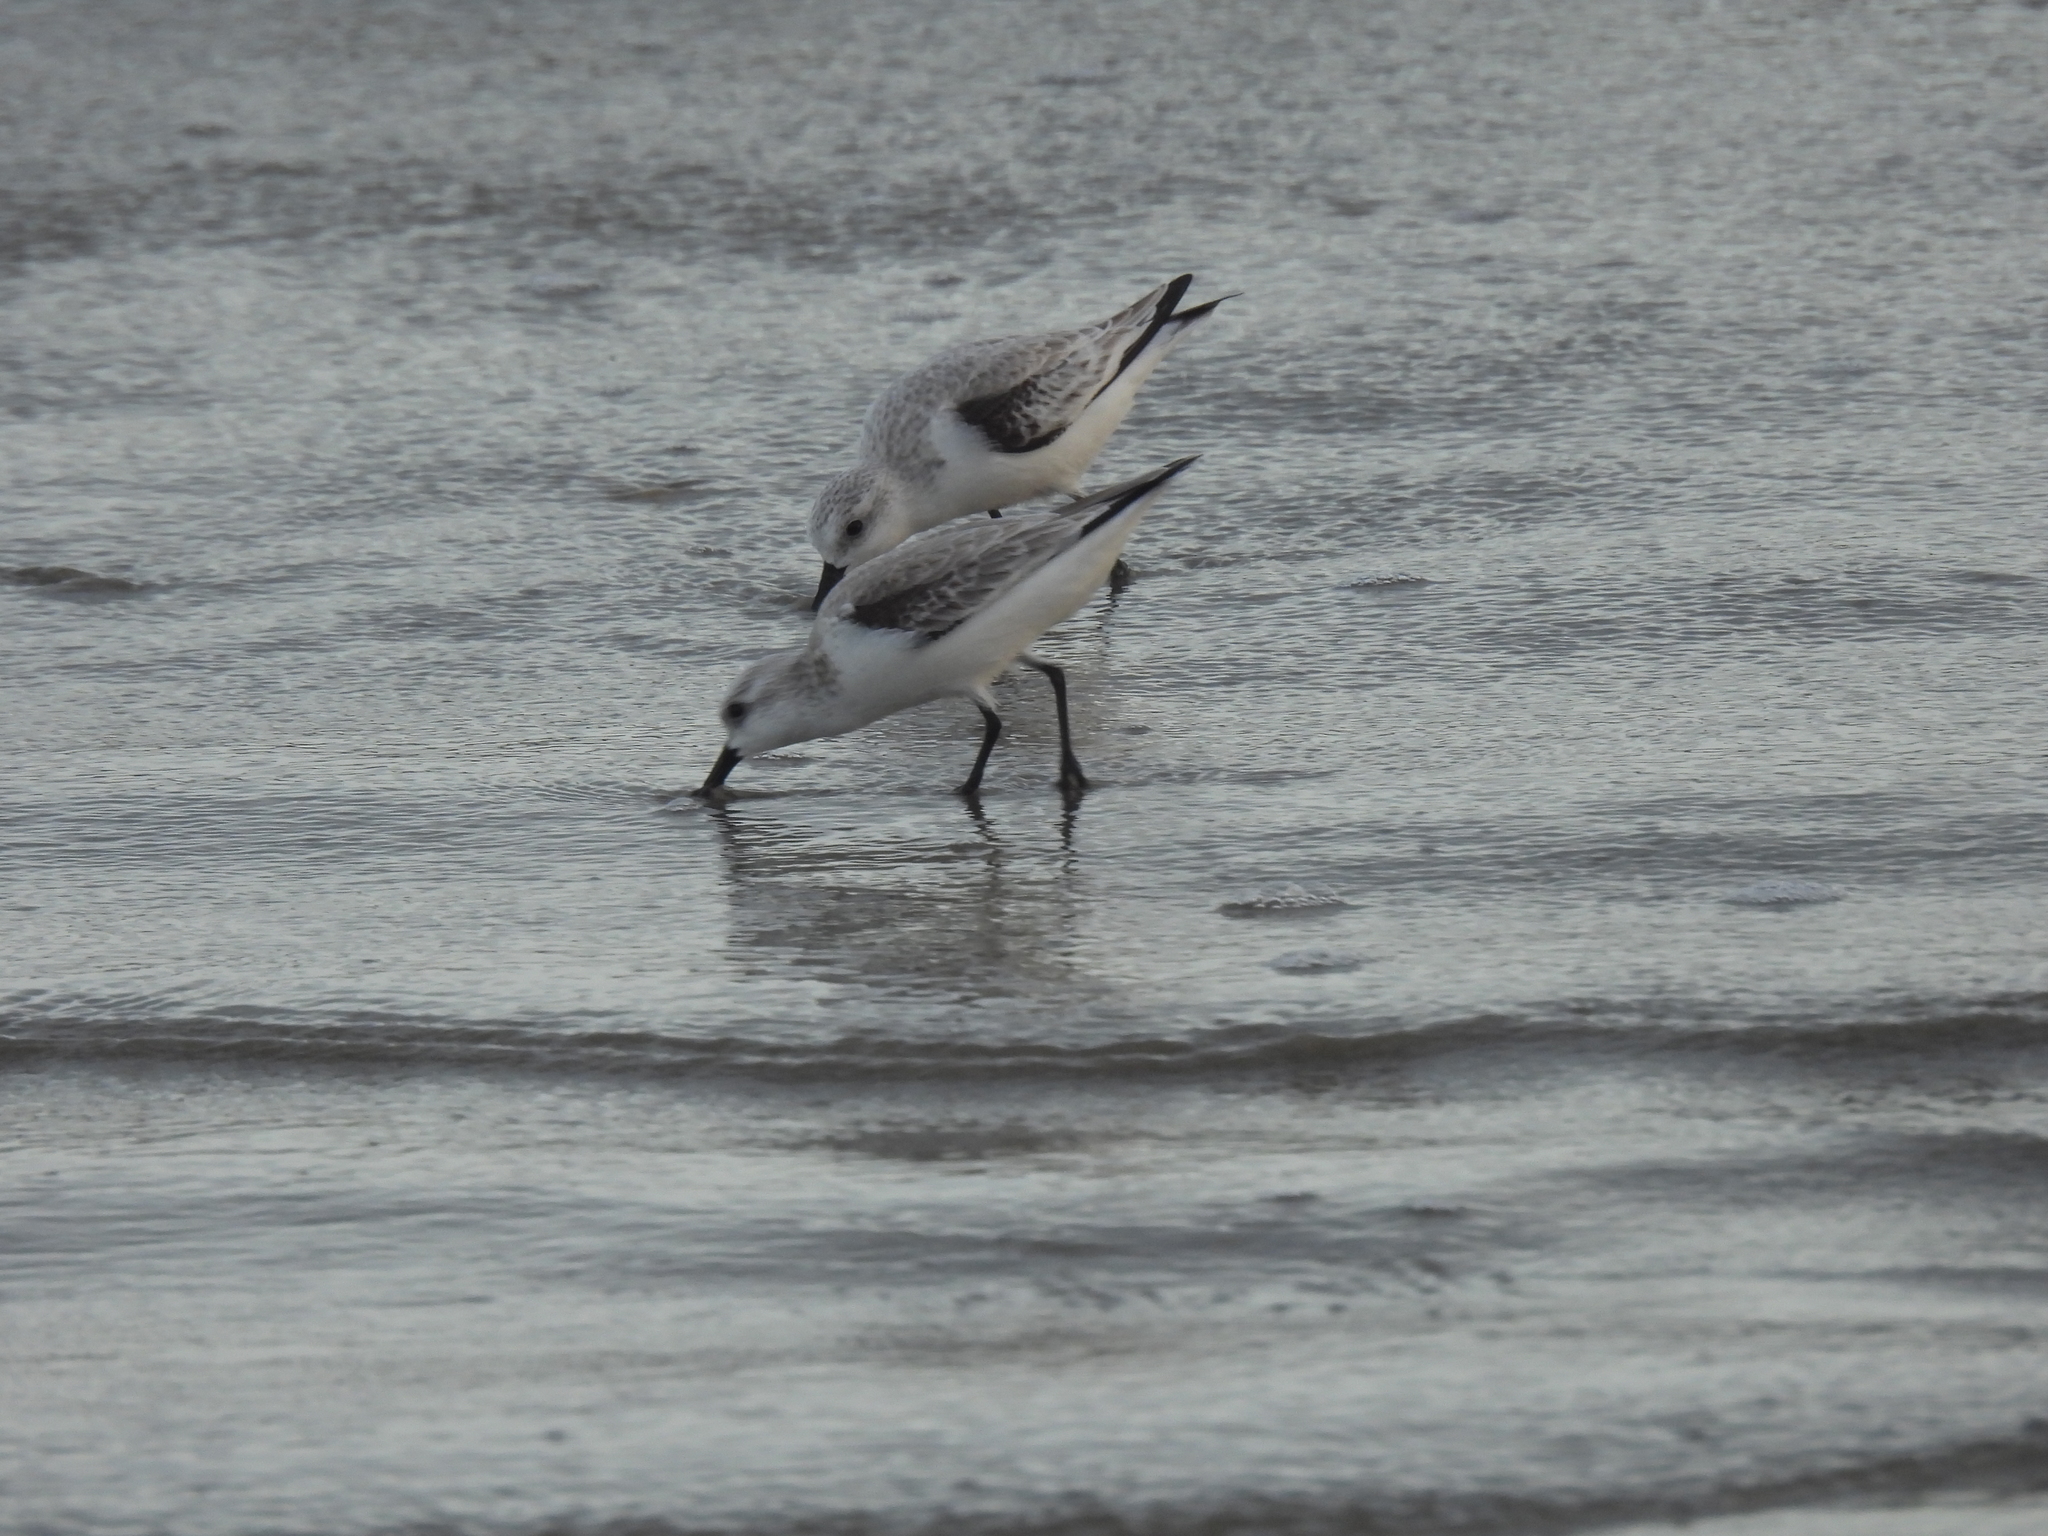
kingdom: Animalia
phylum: Chordata
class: Aves
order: Charadriiformes
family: Scolopacidae
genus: Calidris
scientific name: Calidris alba
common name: Sanderling
